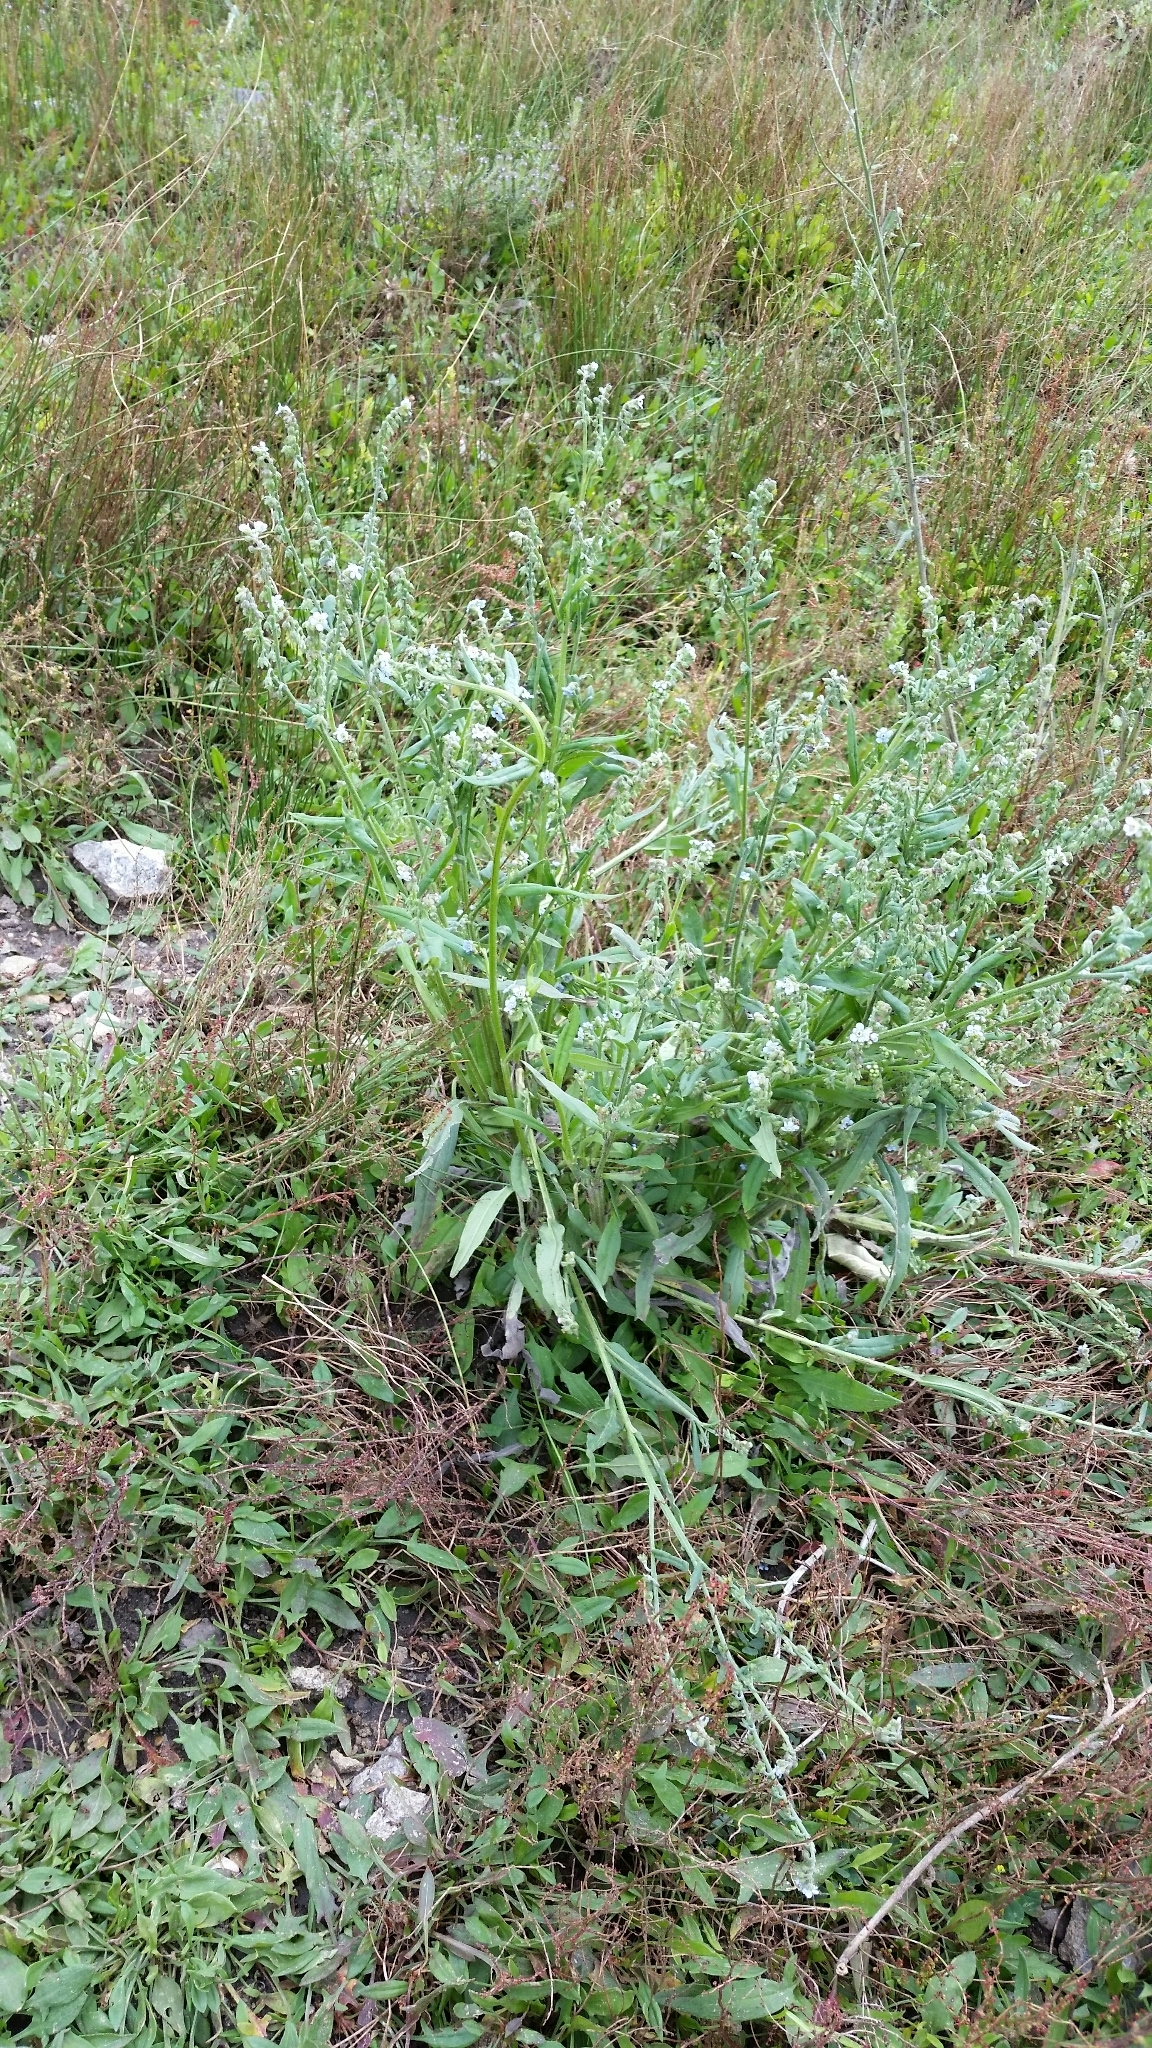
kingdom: Plantae
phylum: Tracheophyta
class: Magnoliopsida
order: Boraginales
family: Boraginaceae
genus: Hackelia
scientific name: Hackelia floribunda
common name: Large-flowered stickseed
